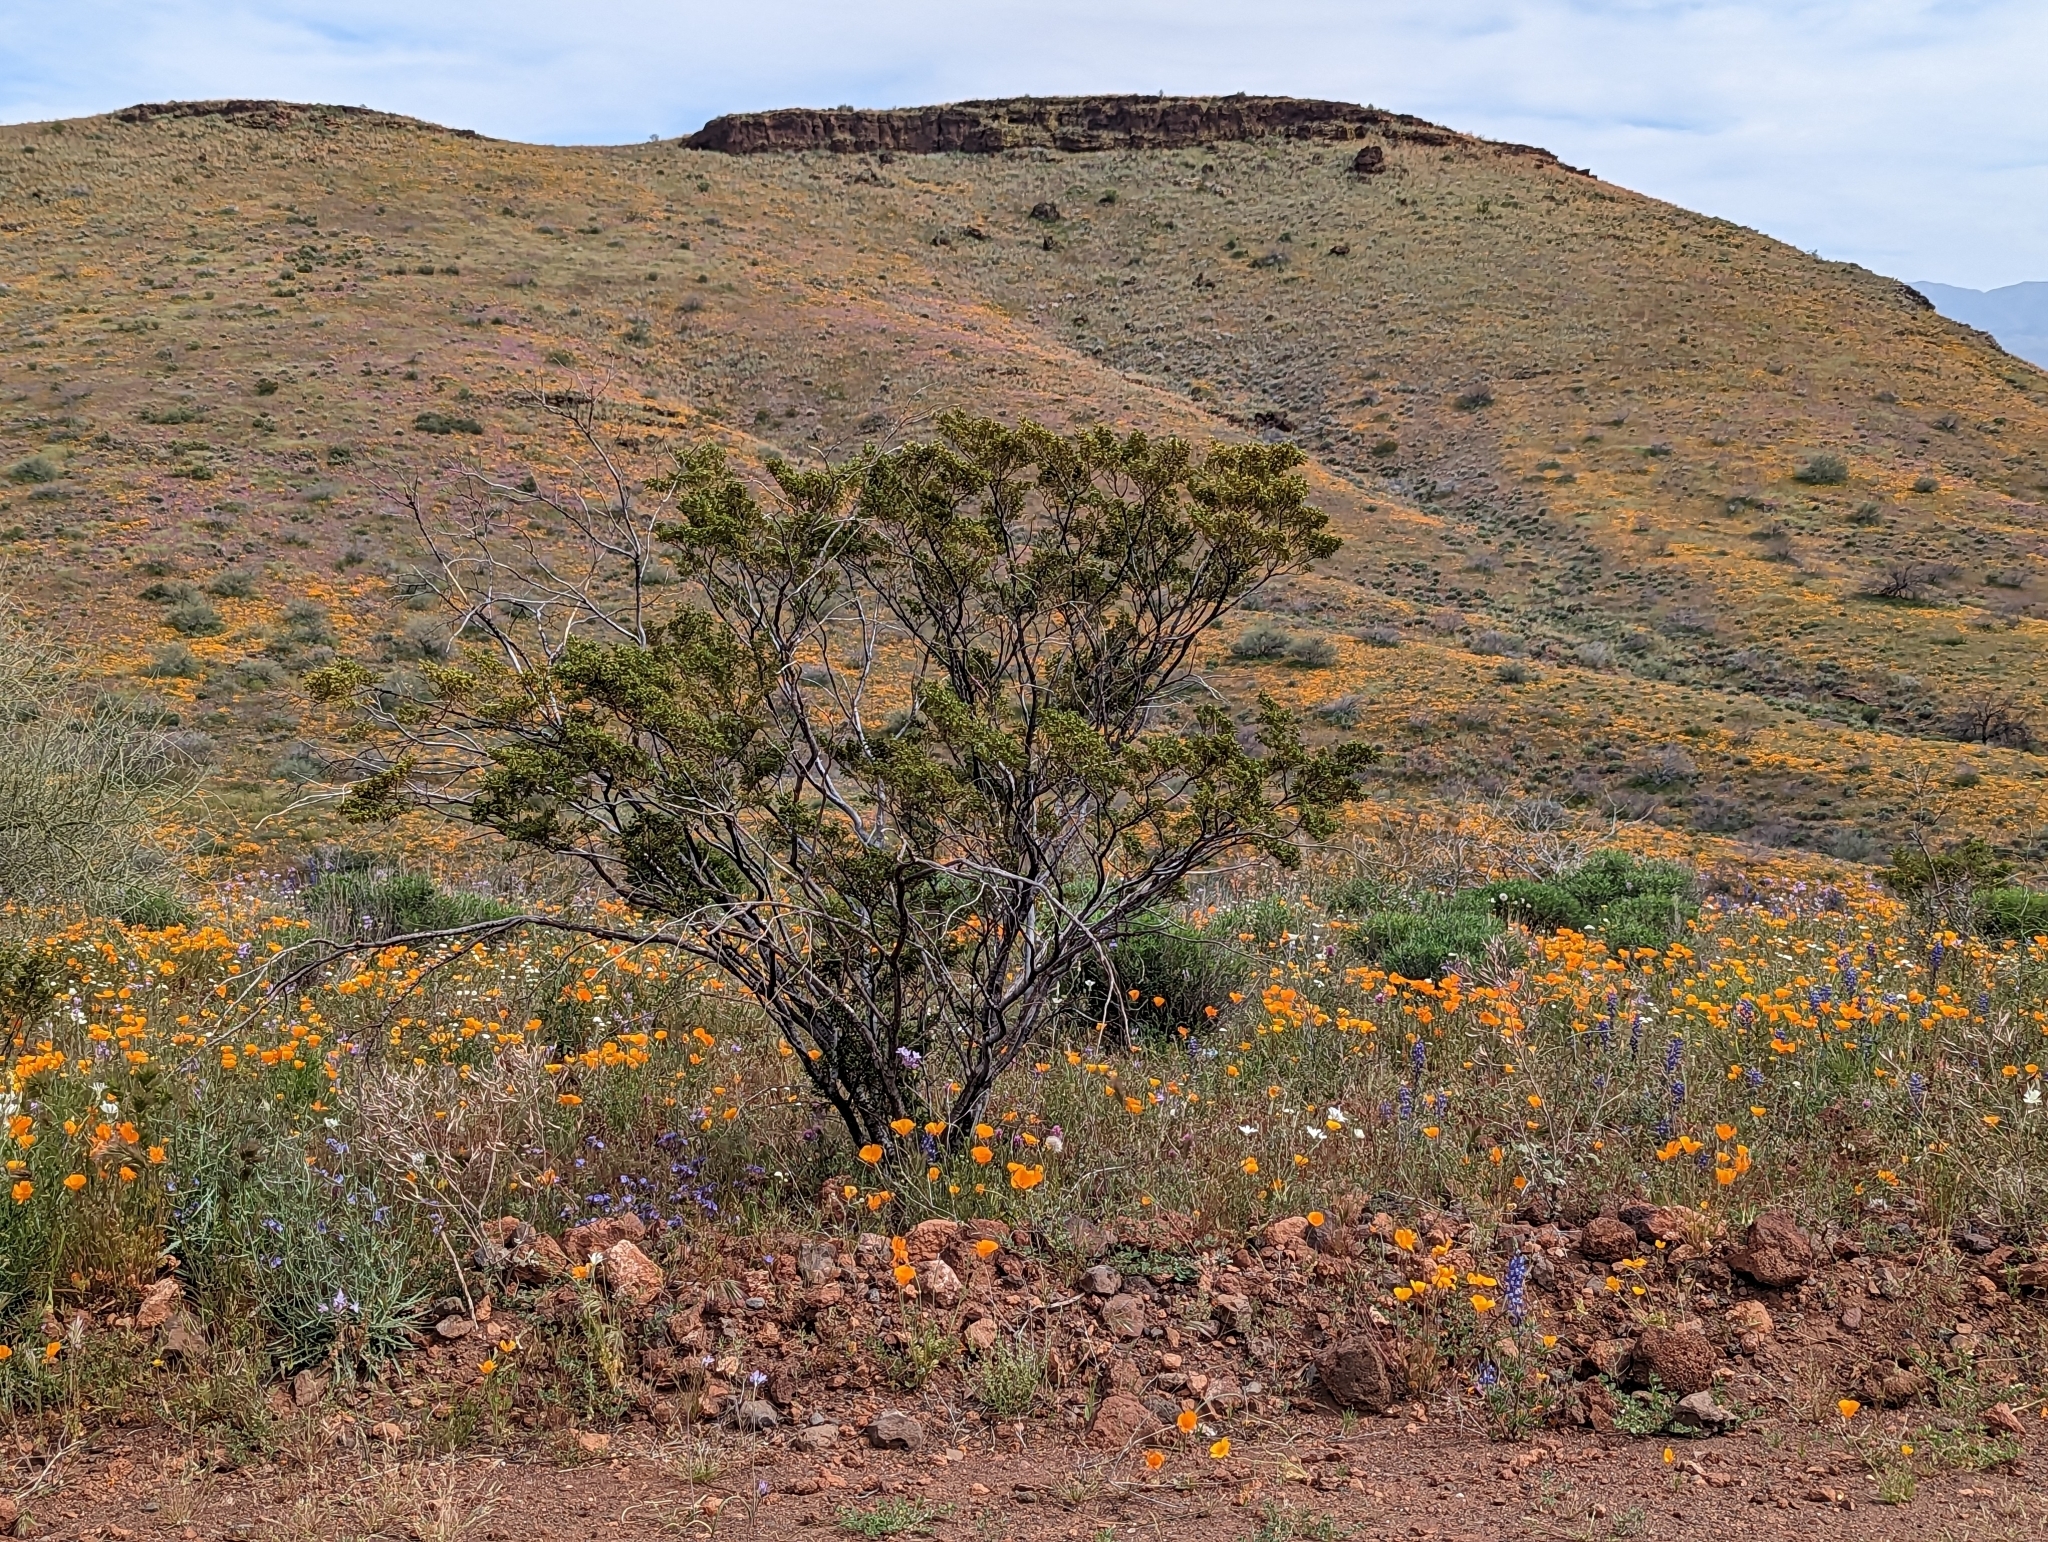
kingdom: Plantae
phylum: Tracheophyta
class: Magnoliopsida
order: Zygophyllales
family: Zygophyllaceae
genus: Larrea
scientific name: Larrea tridentata
